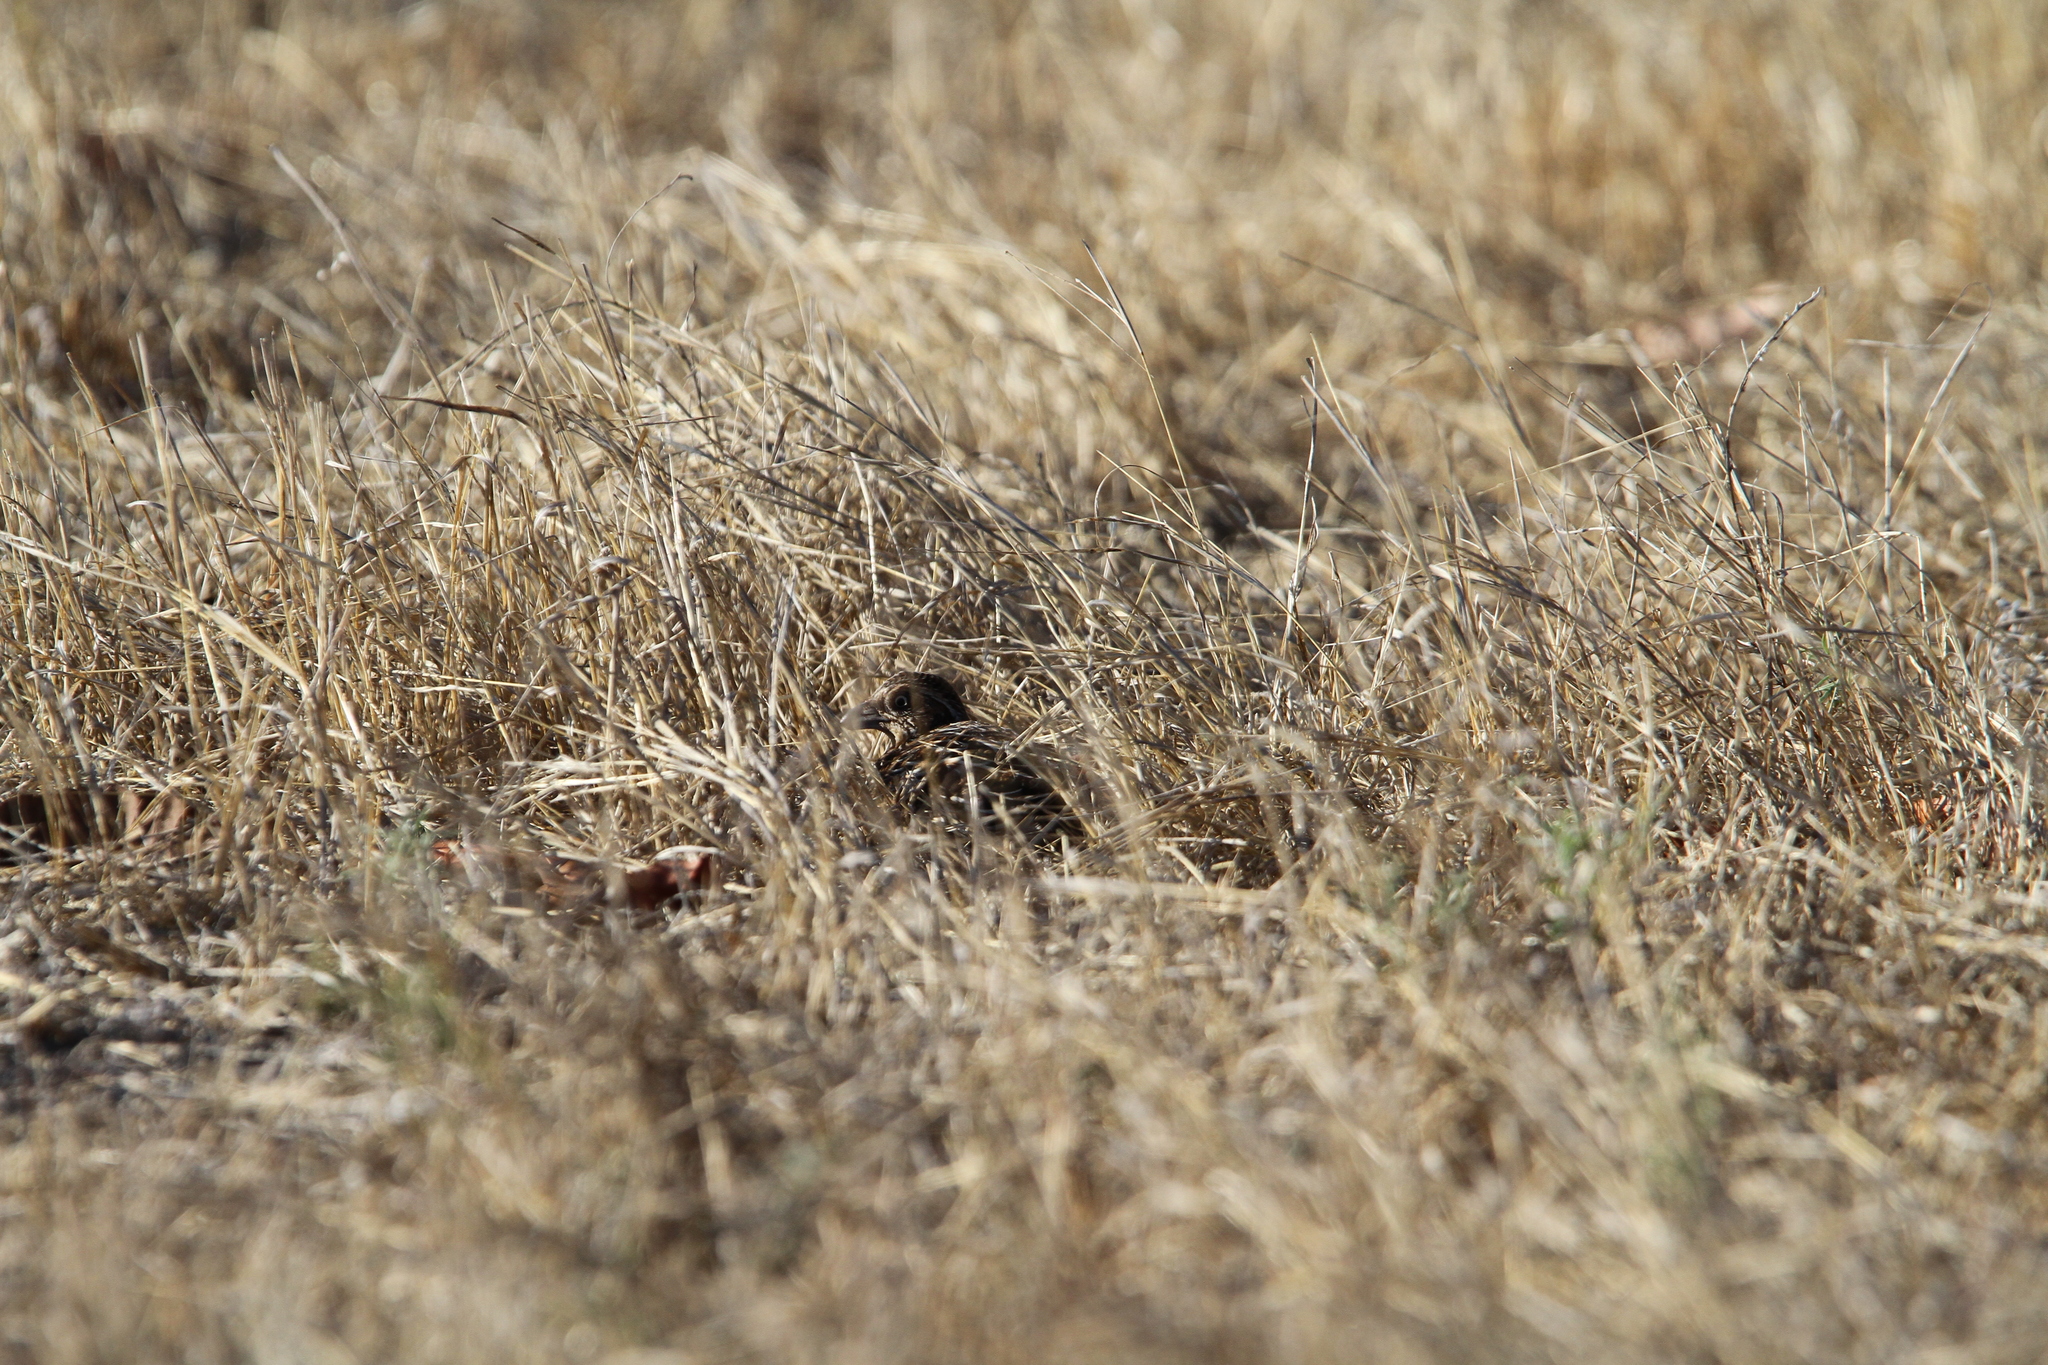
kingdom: Animalia
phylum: Chordata
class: Aves
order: Charadriiformes
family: Turnicidae
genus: Turnix
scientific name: Turnix everetti
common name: Sumba buttonquail
